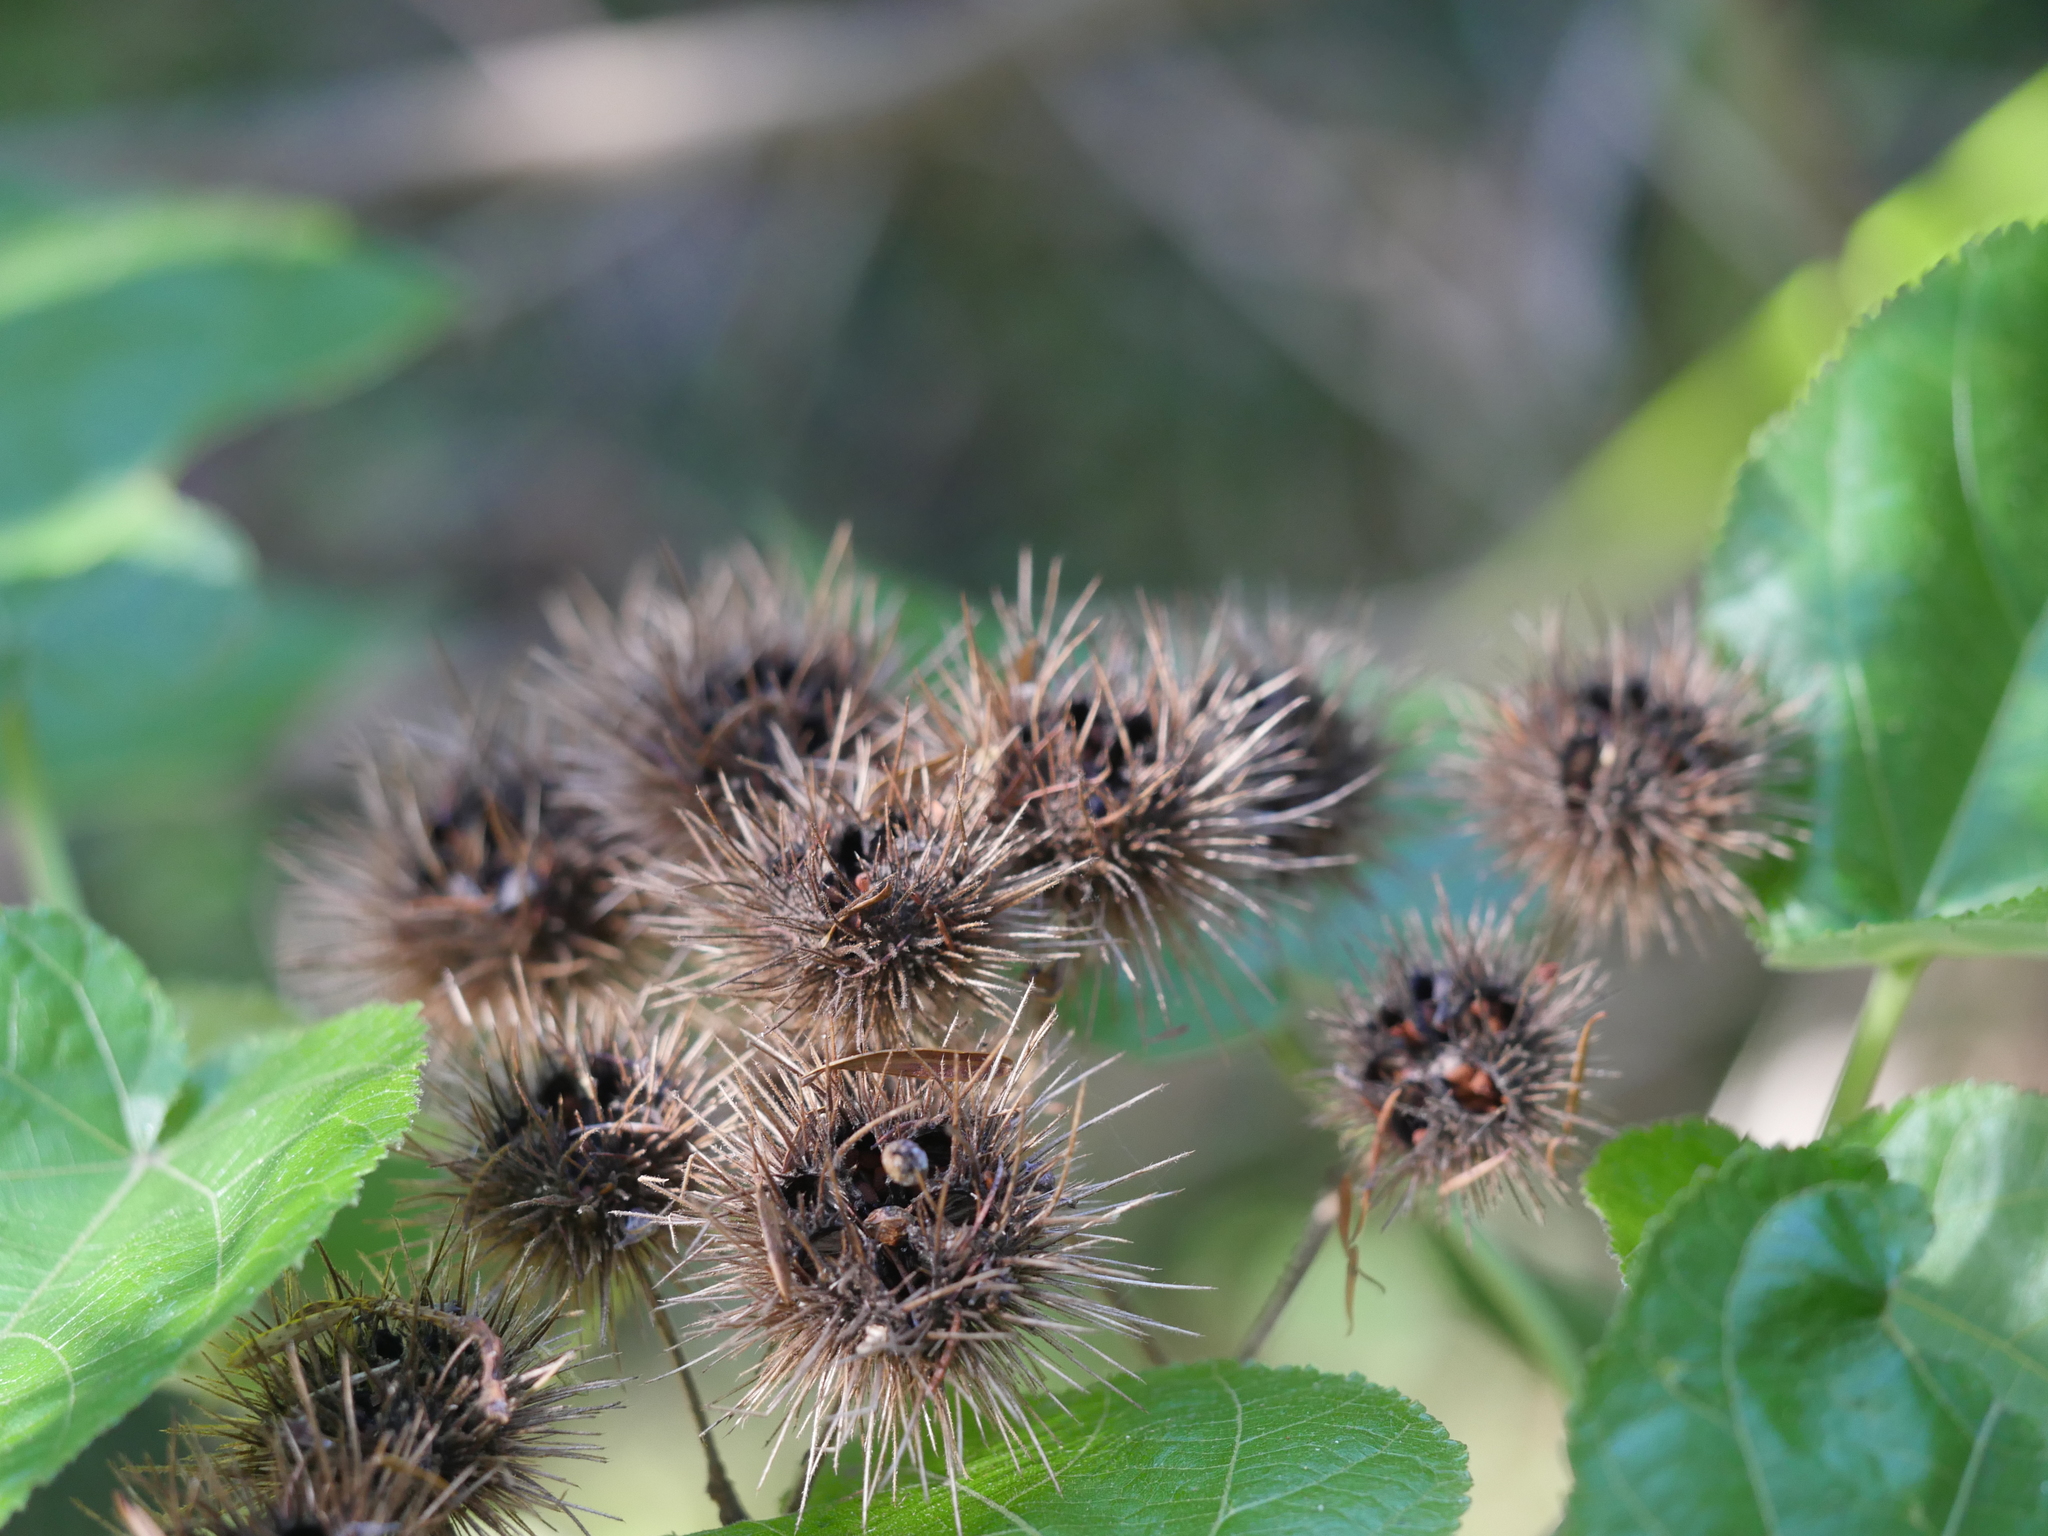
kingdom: Plantae
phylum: Tracheophyta
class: Magnoliopsida
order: Malvales
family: Malvaceae
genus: Entelea
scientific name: Entelea arborescens
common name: New zealand-mulberry
